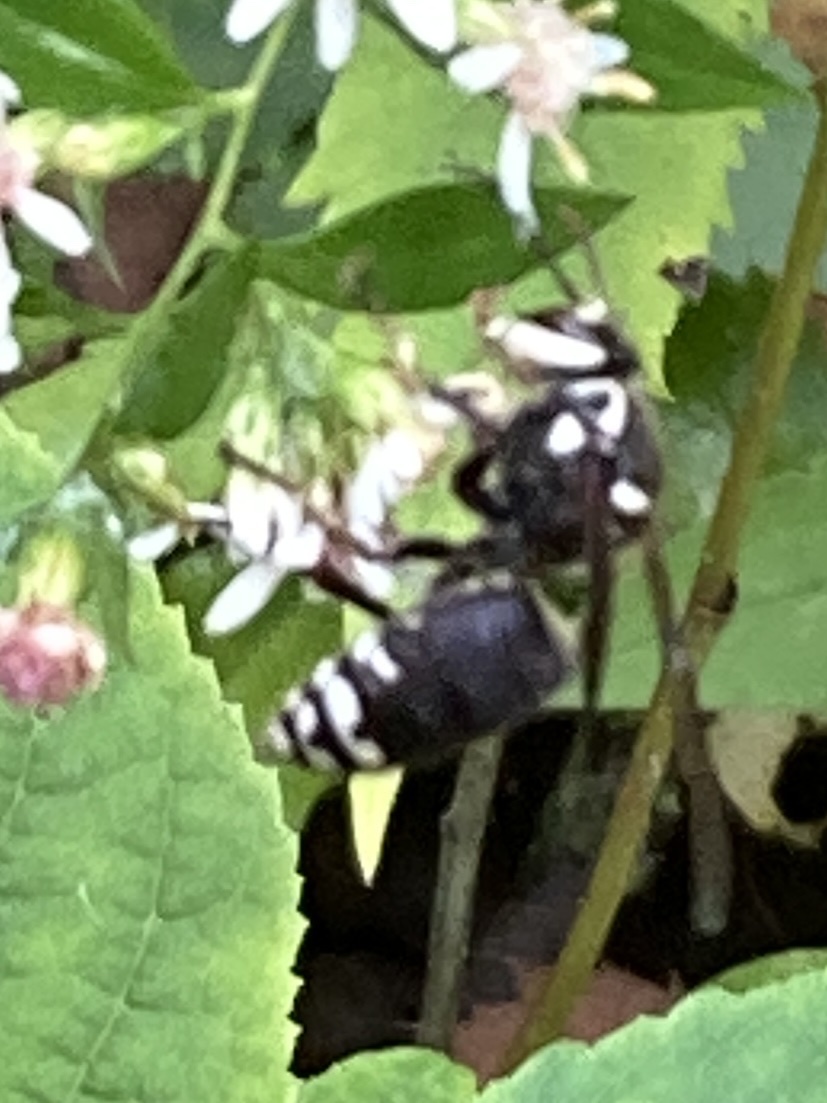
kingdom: Animalia
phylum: Arthropoda
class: Insecta
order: Hymenoptera
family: Vespidae
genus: Dolichovespula
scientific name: Dolichovespula maculata
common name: Bald-faced hornet
